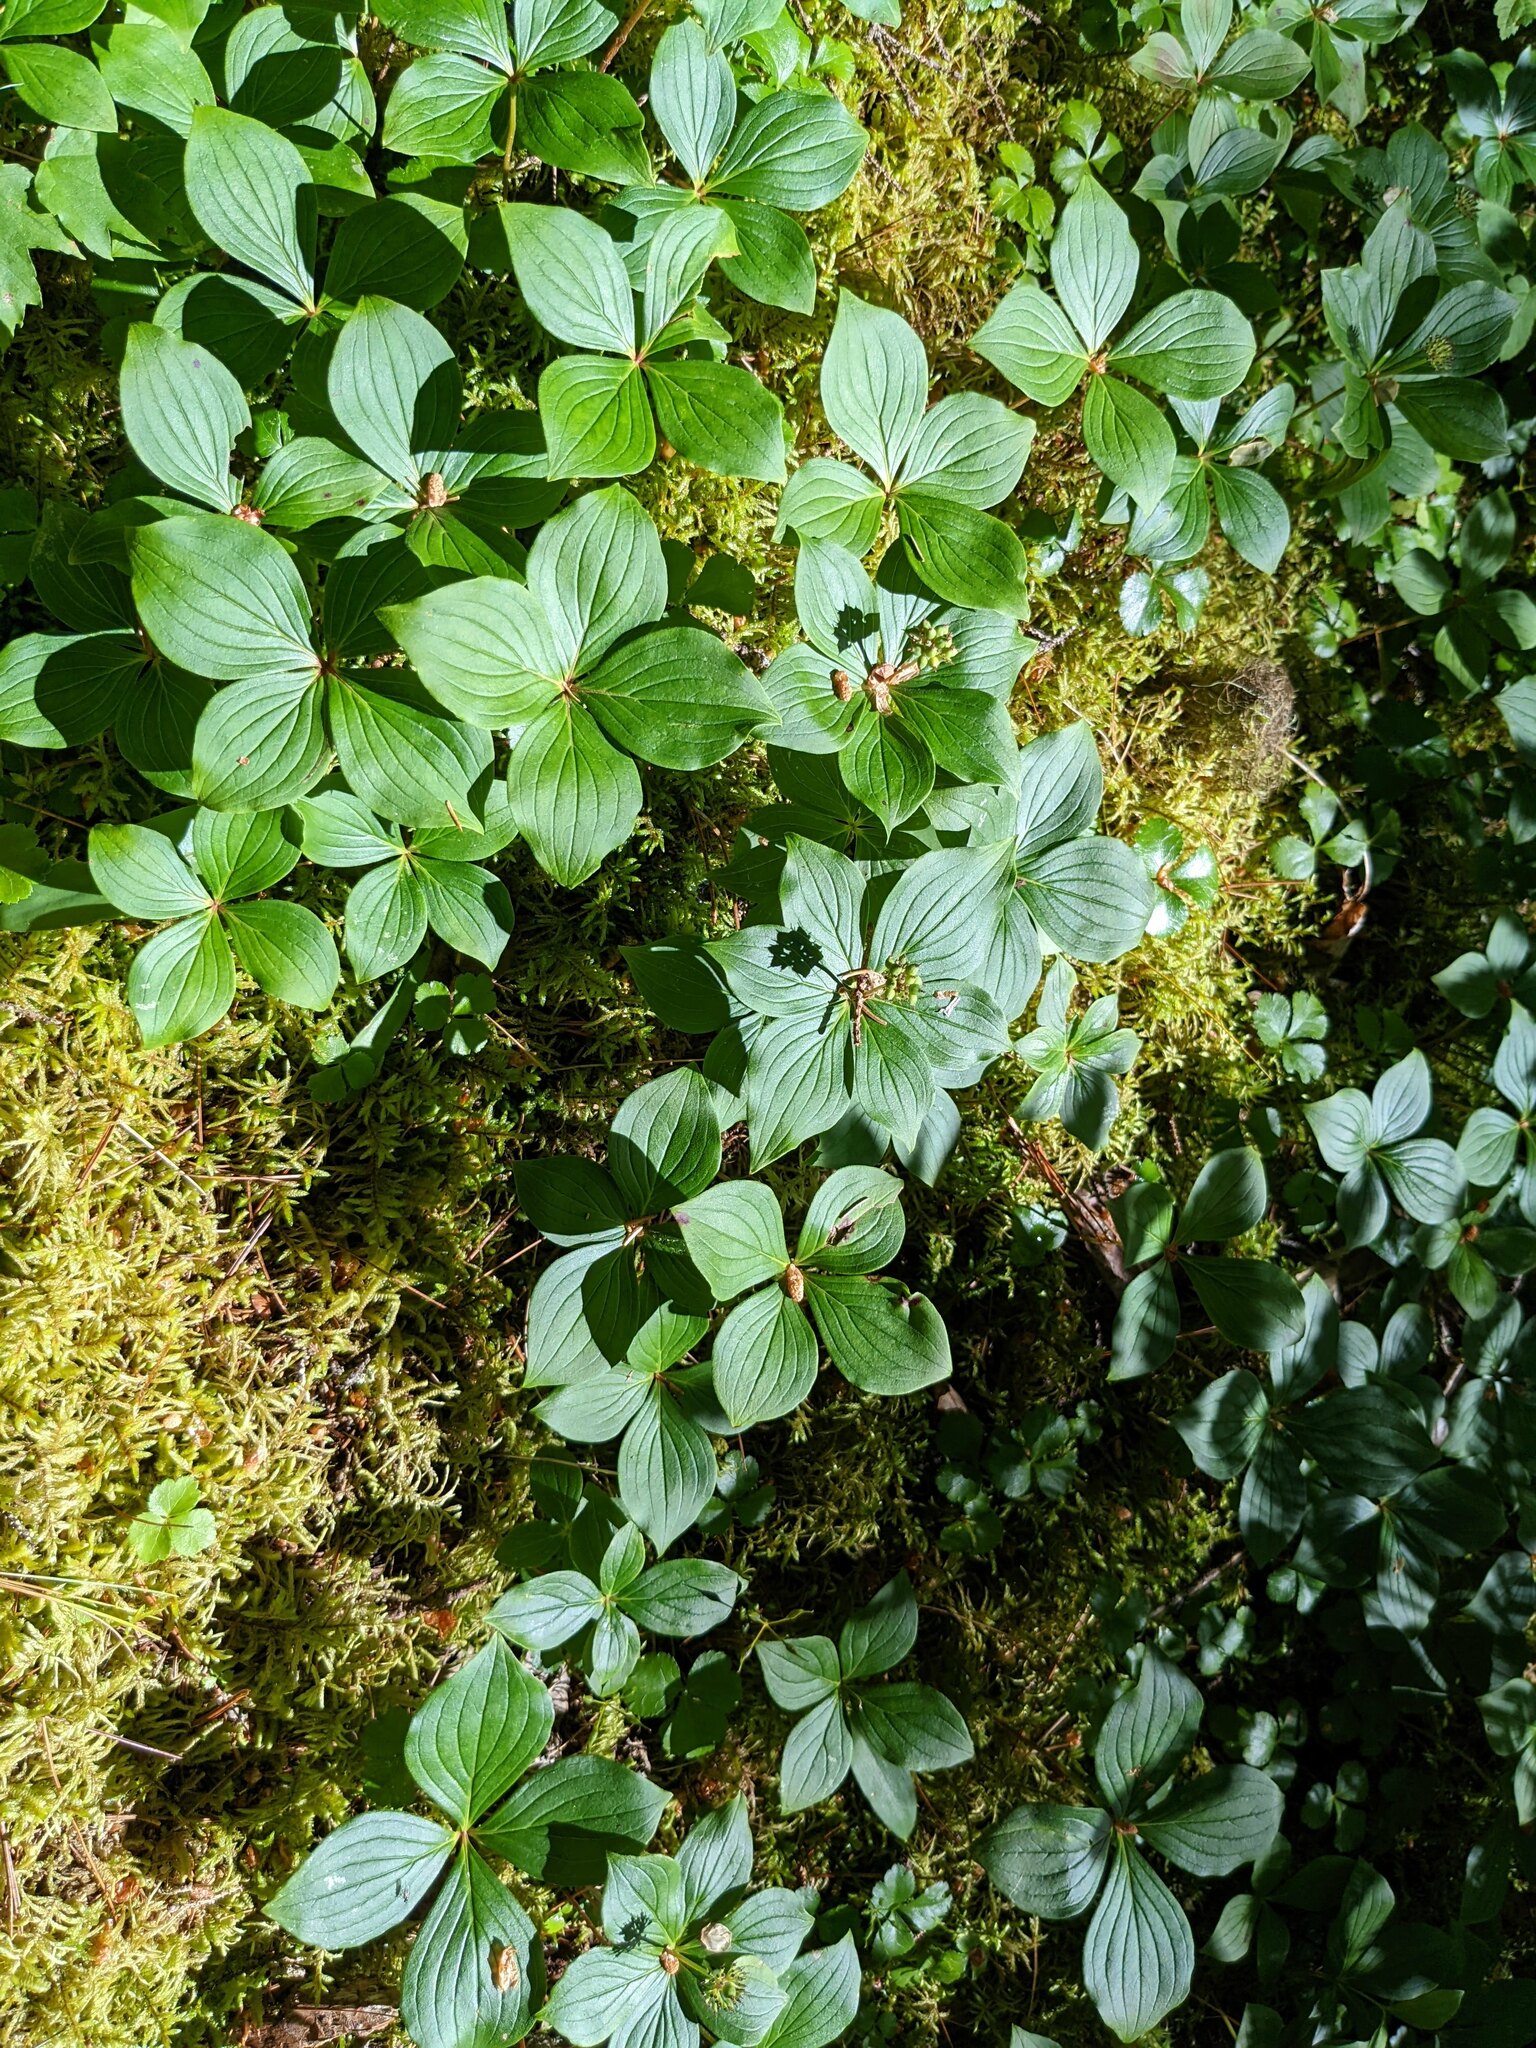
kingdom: Plantae
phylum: Tracheophyta
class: Magnoliopsida
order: Cornales
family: Cornaceae
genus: Cornus
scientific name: Cornus canadensis
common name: Creeping dogwood
